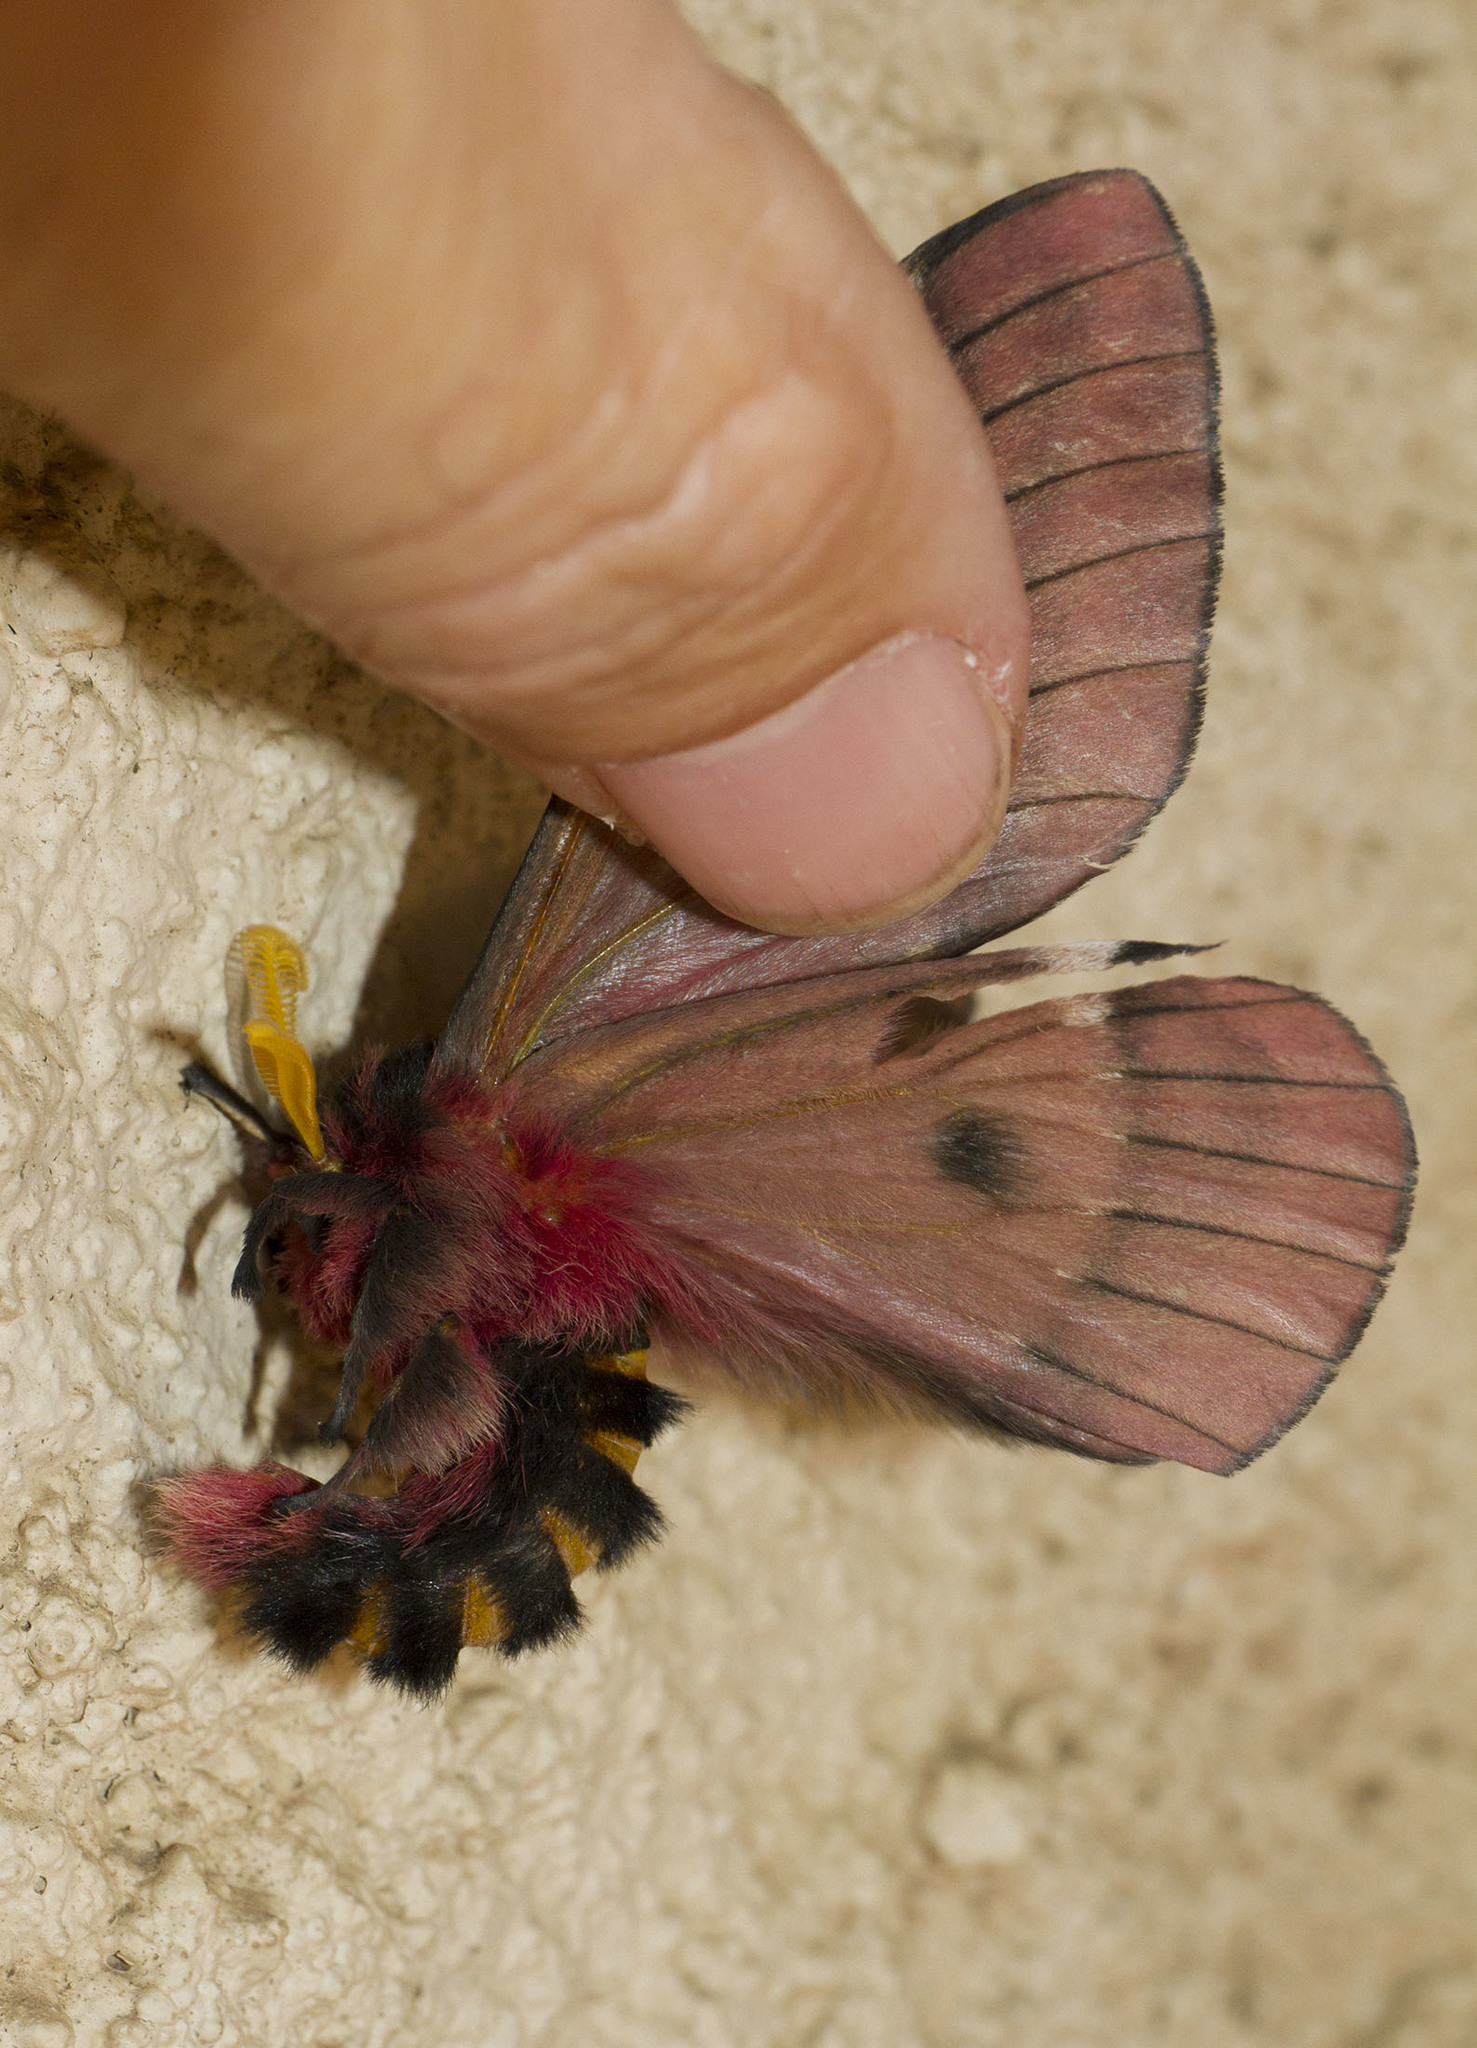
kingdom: Animalia
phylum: Arthropoda
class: Insecta
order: Lepidoptera
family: Saturniidae
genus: Manodirphia
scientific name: Manodirphia manes
